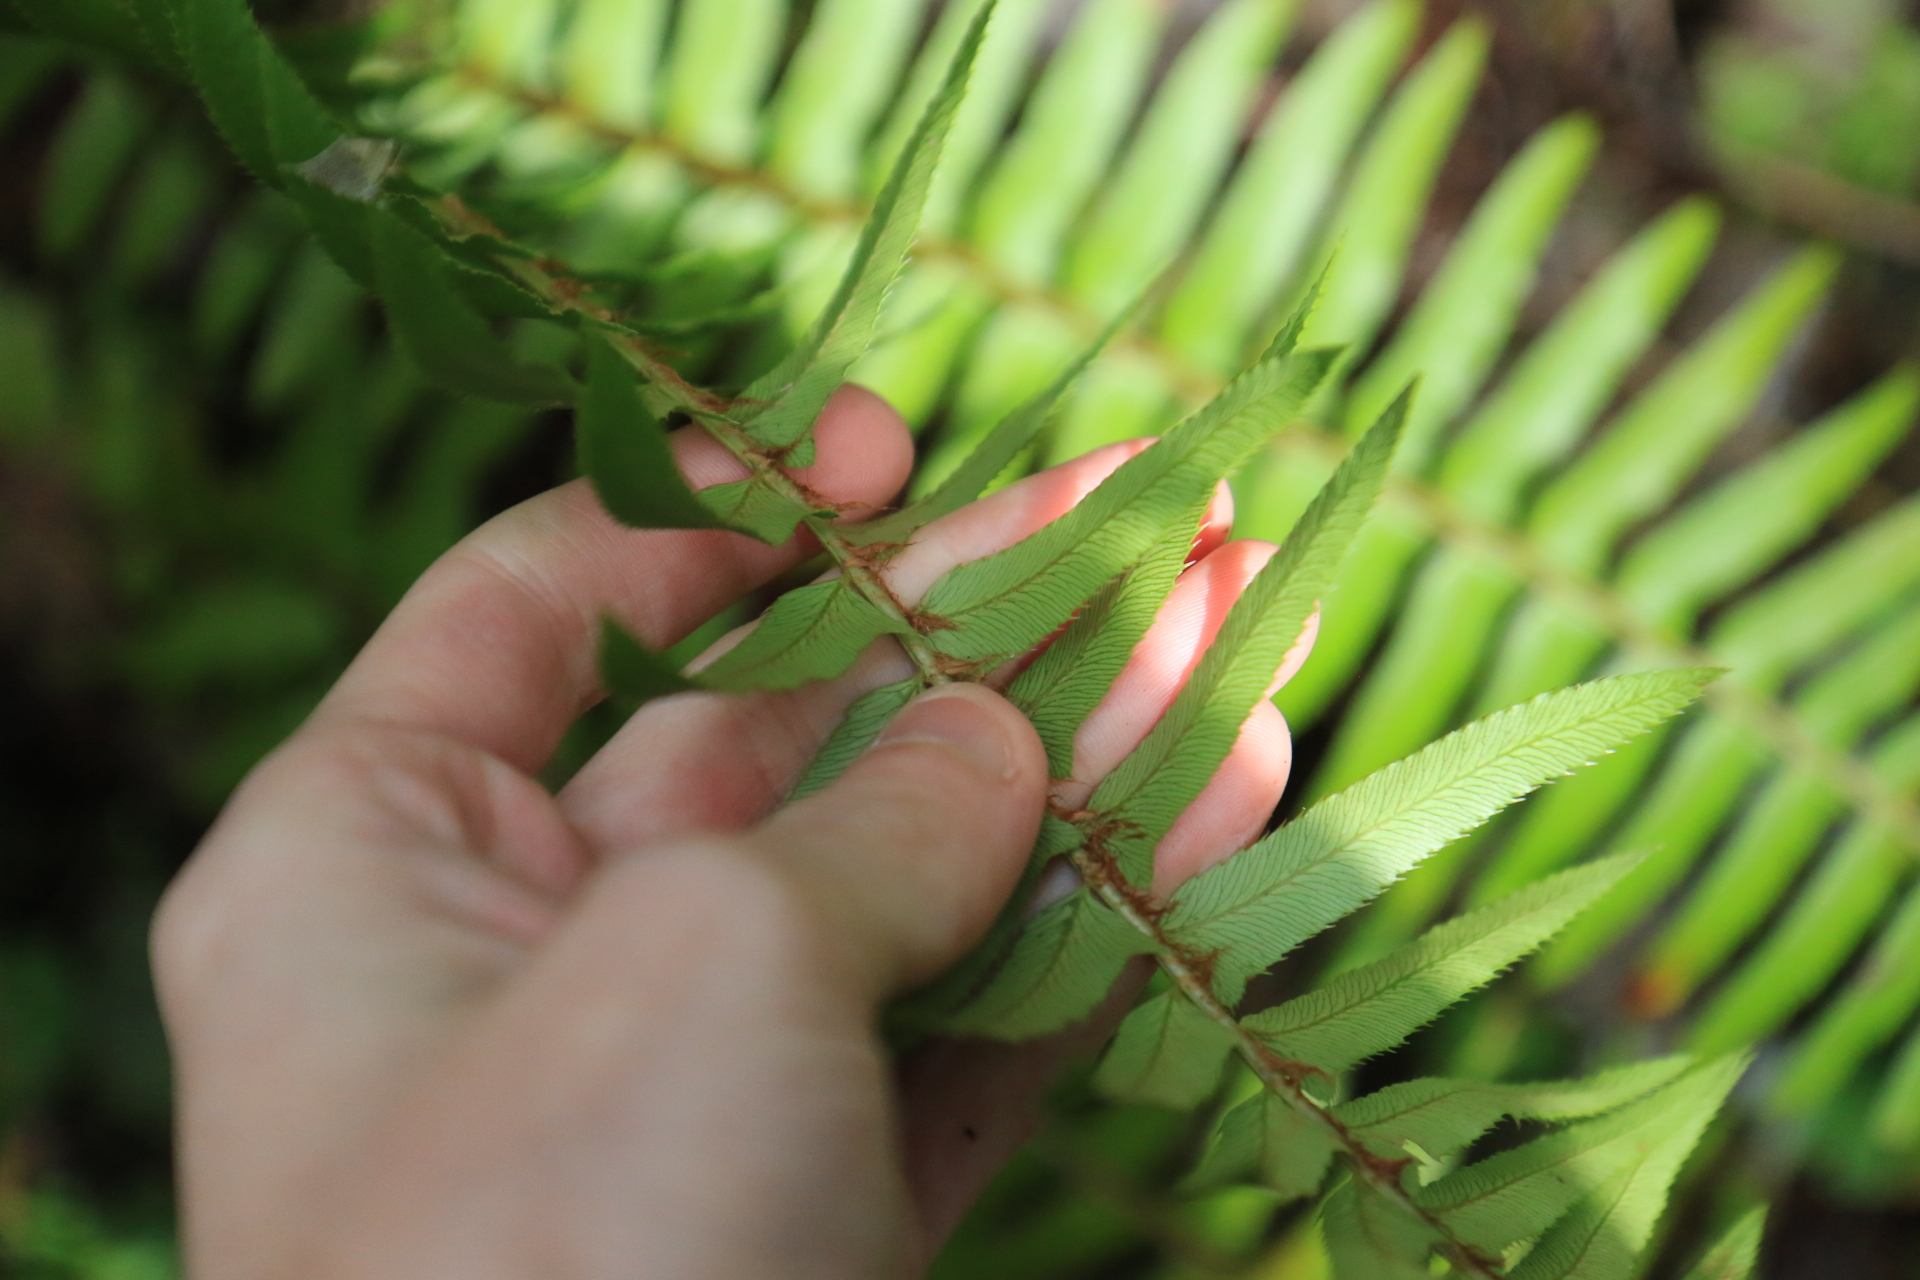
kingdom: Plantae
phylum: Tracheophyta
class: Polypodiopsida
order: Polypodiales
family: Dryopteridaceae
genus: Polystichum
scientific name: Polystichum munitum
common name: Western sword-fern
